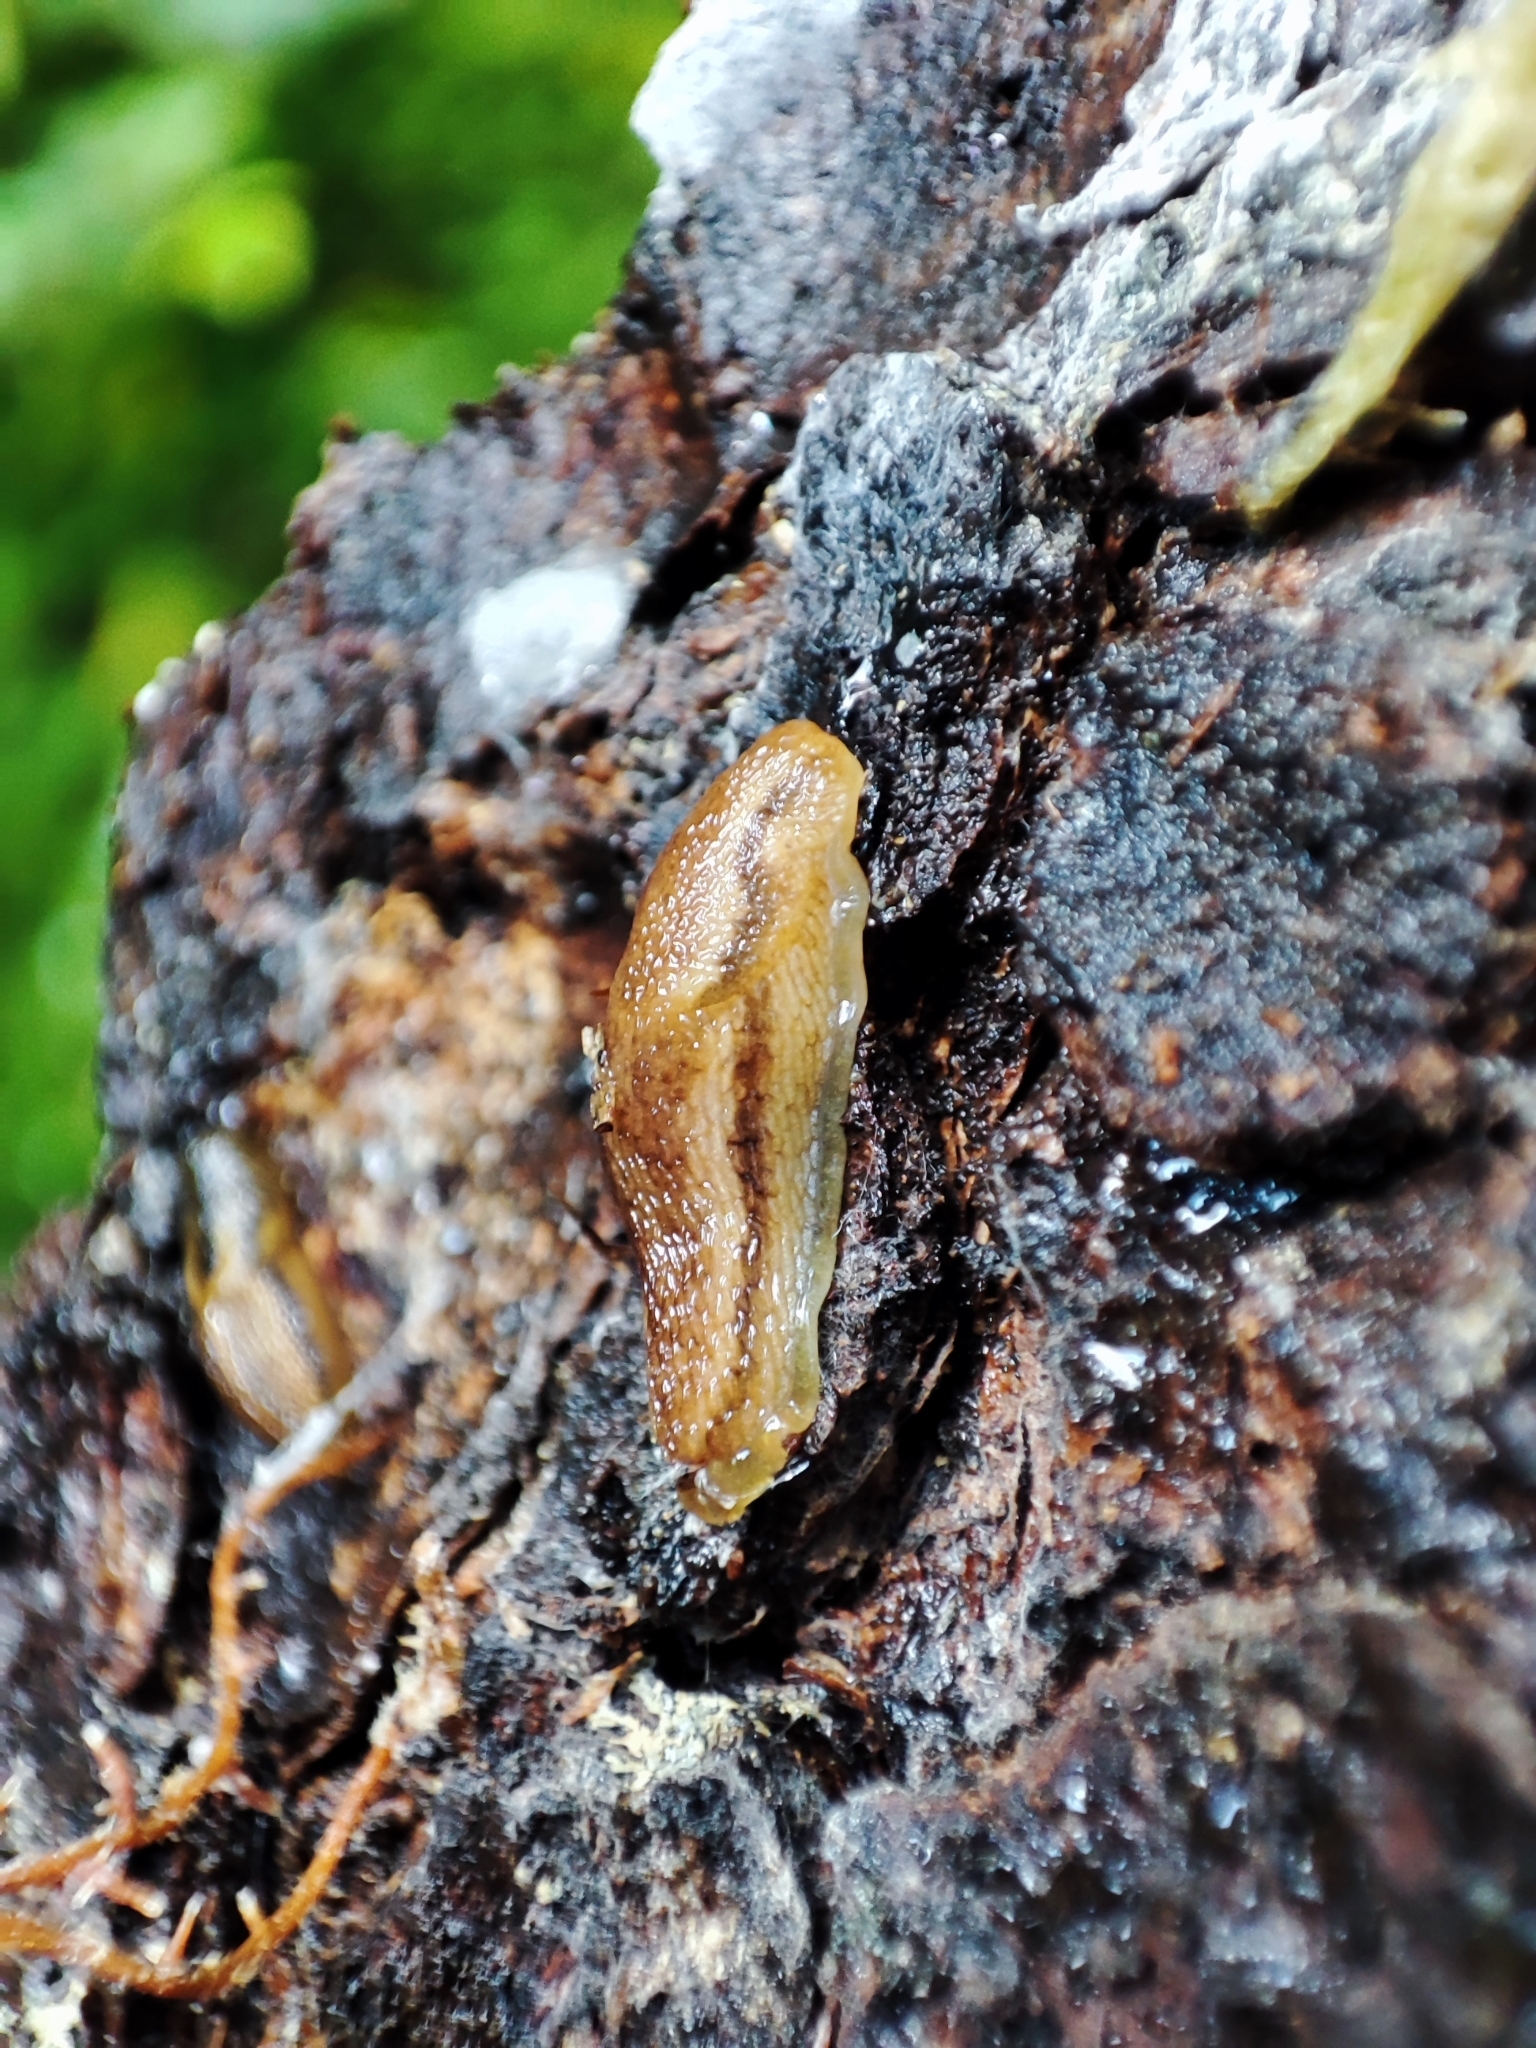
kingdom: Animalia
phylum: Mollusca
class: Gastropoda
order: Stylommatophora
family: Arionidae
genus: Arion
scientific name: Arion fuscus
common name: Northern dusky slug
